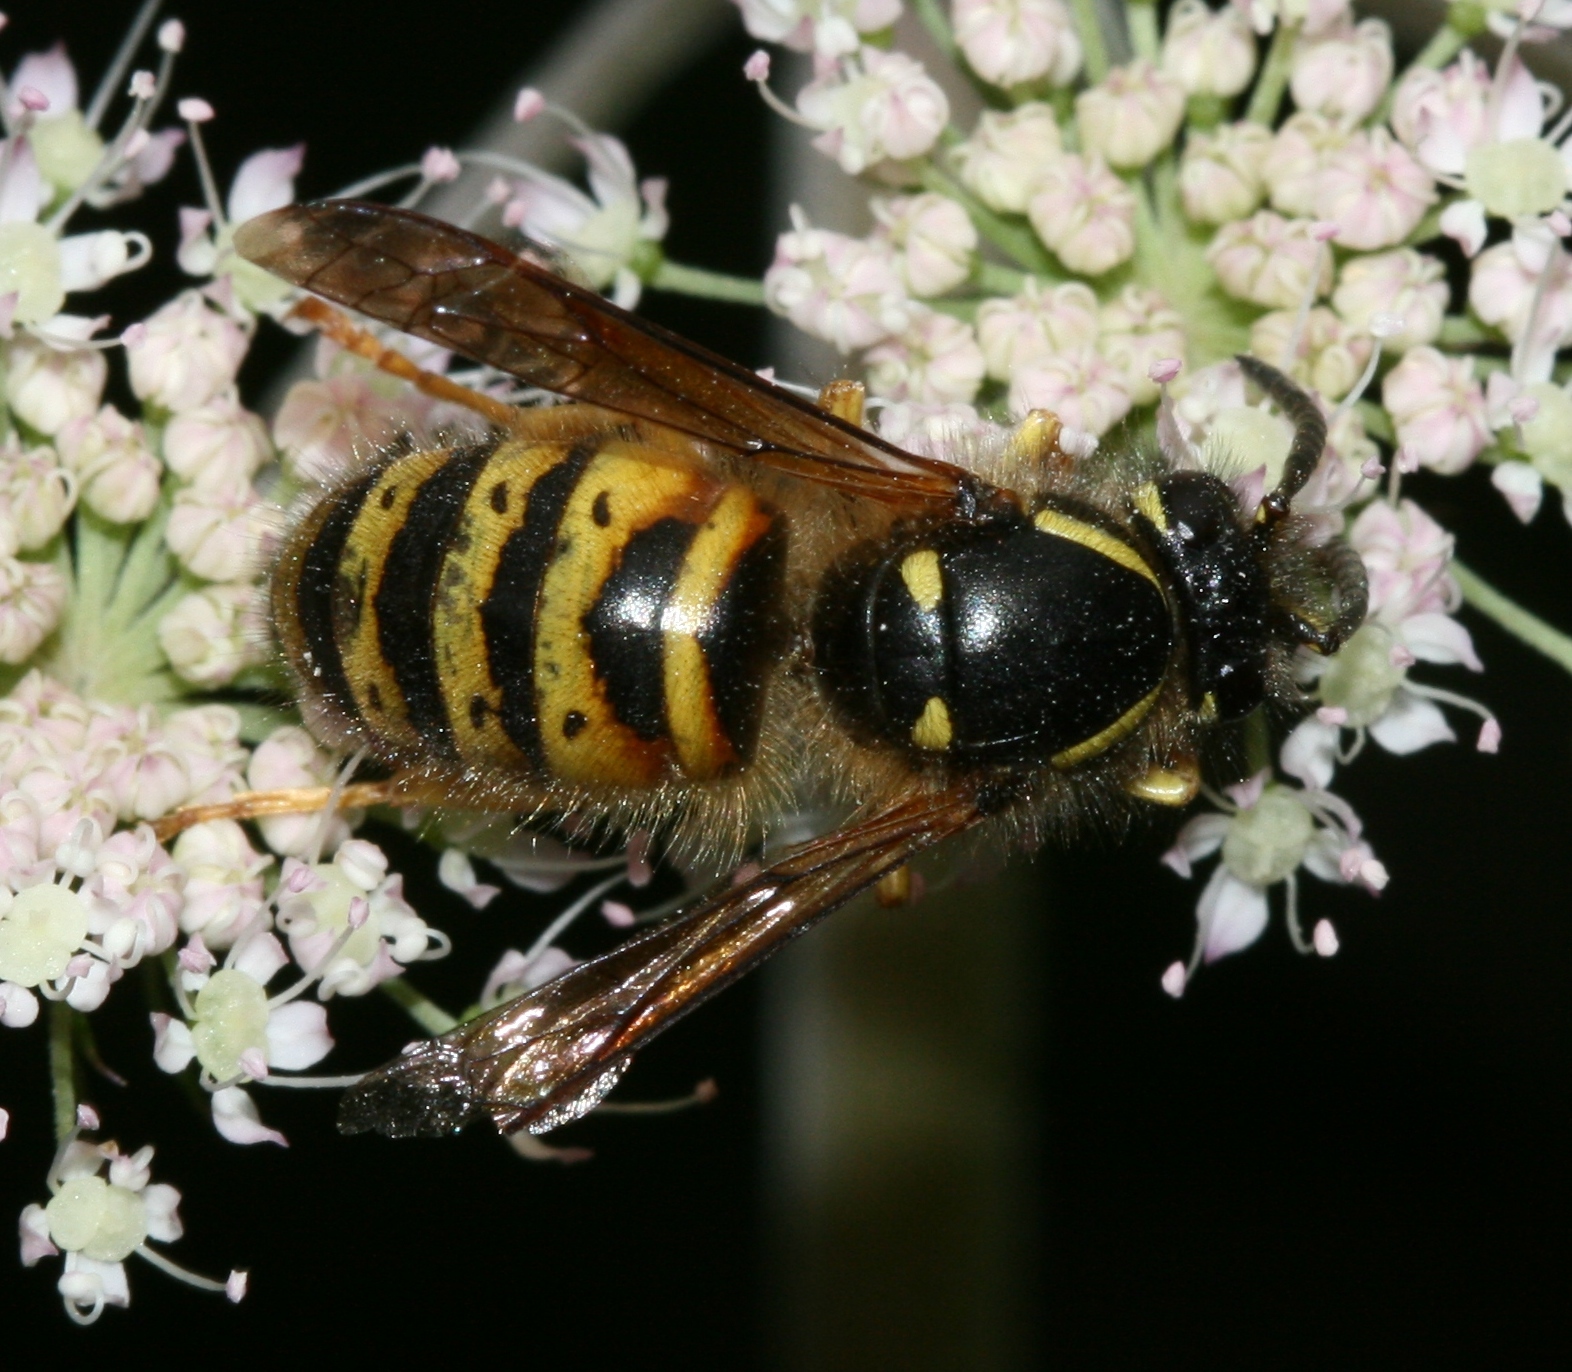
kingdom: Animalia
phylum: Arthropoda
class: Insecta
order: Hymenoptera
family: Vespidae
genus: Dolichovespula
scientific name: Dolichovespula norwegica
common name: Norwegian wasp
